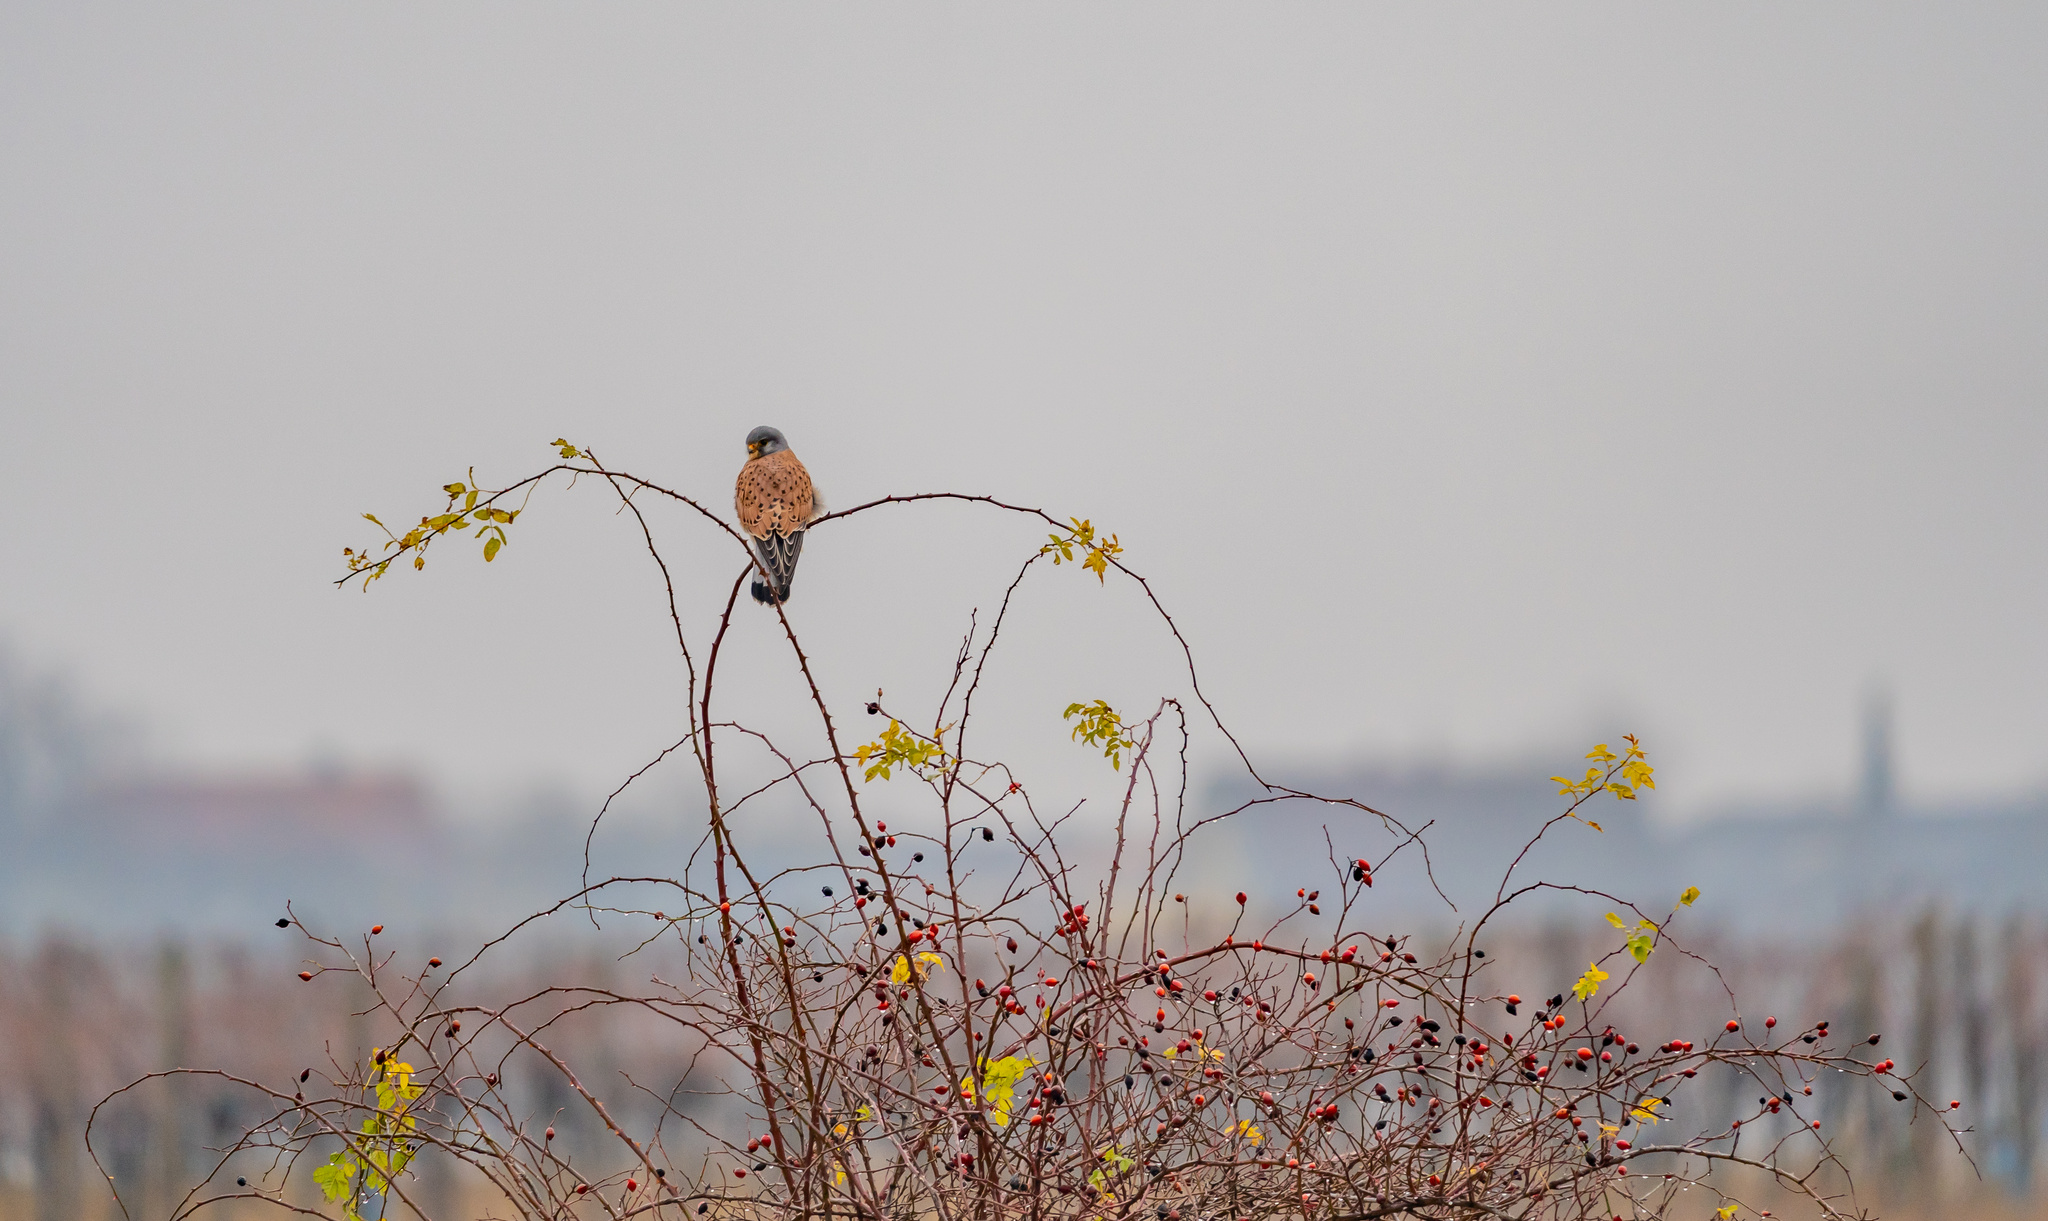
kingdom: Animalia
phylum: Chordata
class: Aves
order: Falconiformes
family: Falconidae
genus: Falco
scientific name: Falco tinnunculus
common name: Common kestrel
